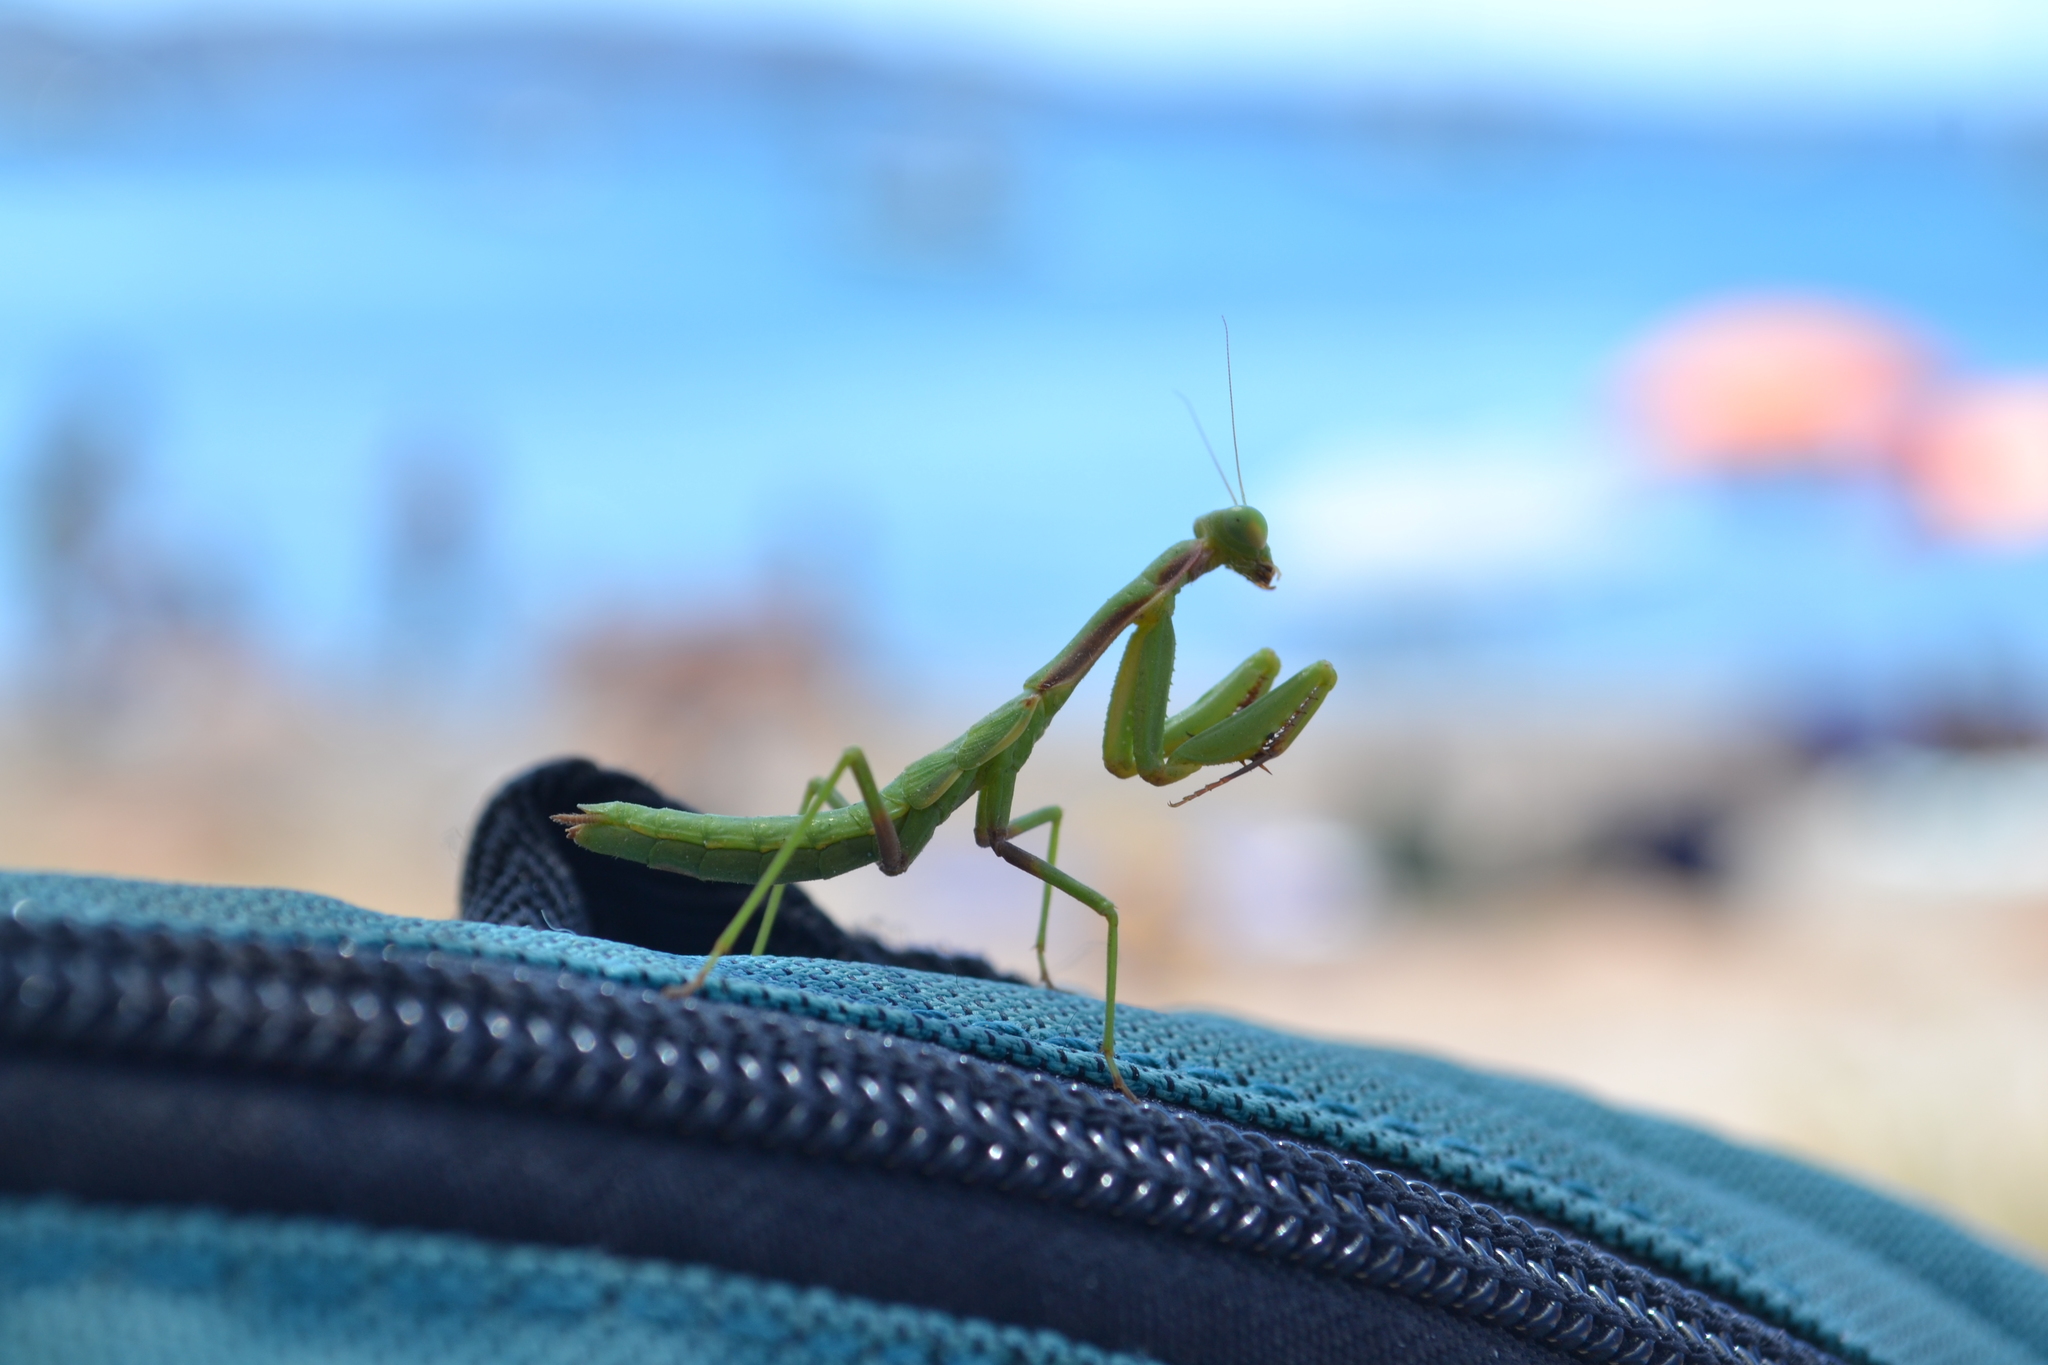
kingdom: Animalia
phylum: Arthropoda
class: Insecta
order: Mantodea
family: Eremiaphilidae
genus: Iris
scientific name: Iris oratoria
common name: Mediterranean mantis
